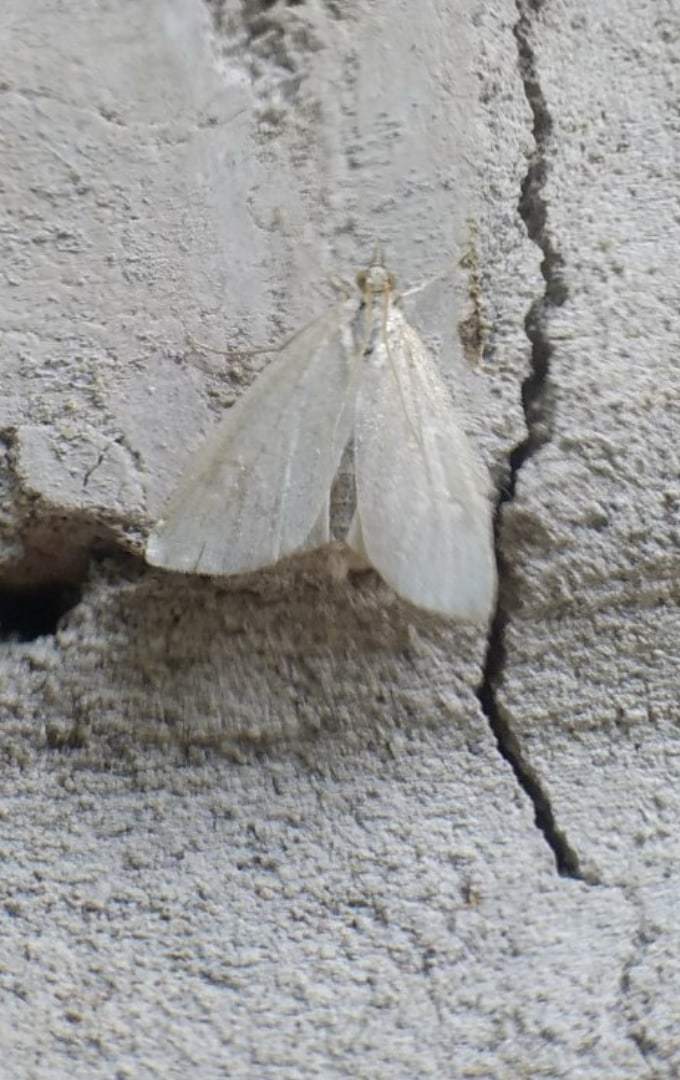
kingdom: Animalia
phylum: Arthropoda
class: Insecta
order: Lepidoptera
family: Crambidae
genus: Udea
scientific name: Udea
